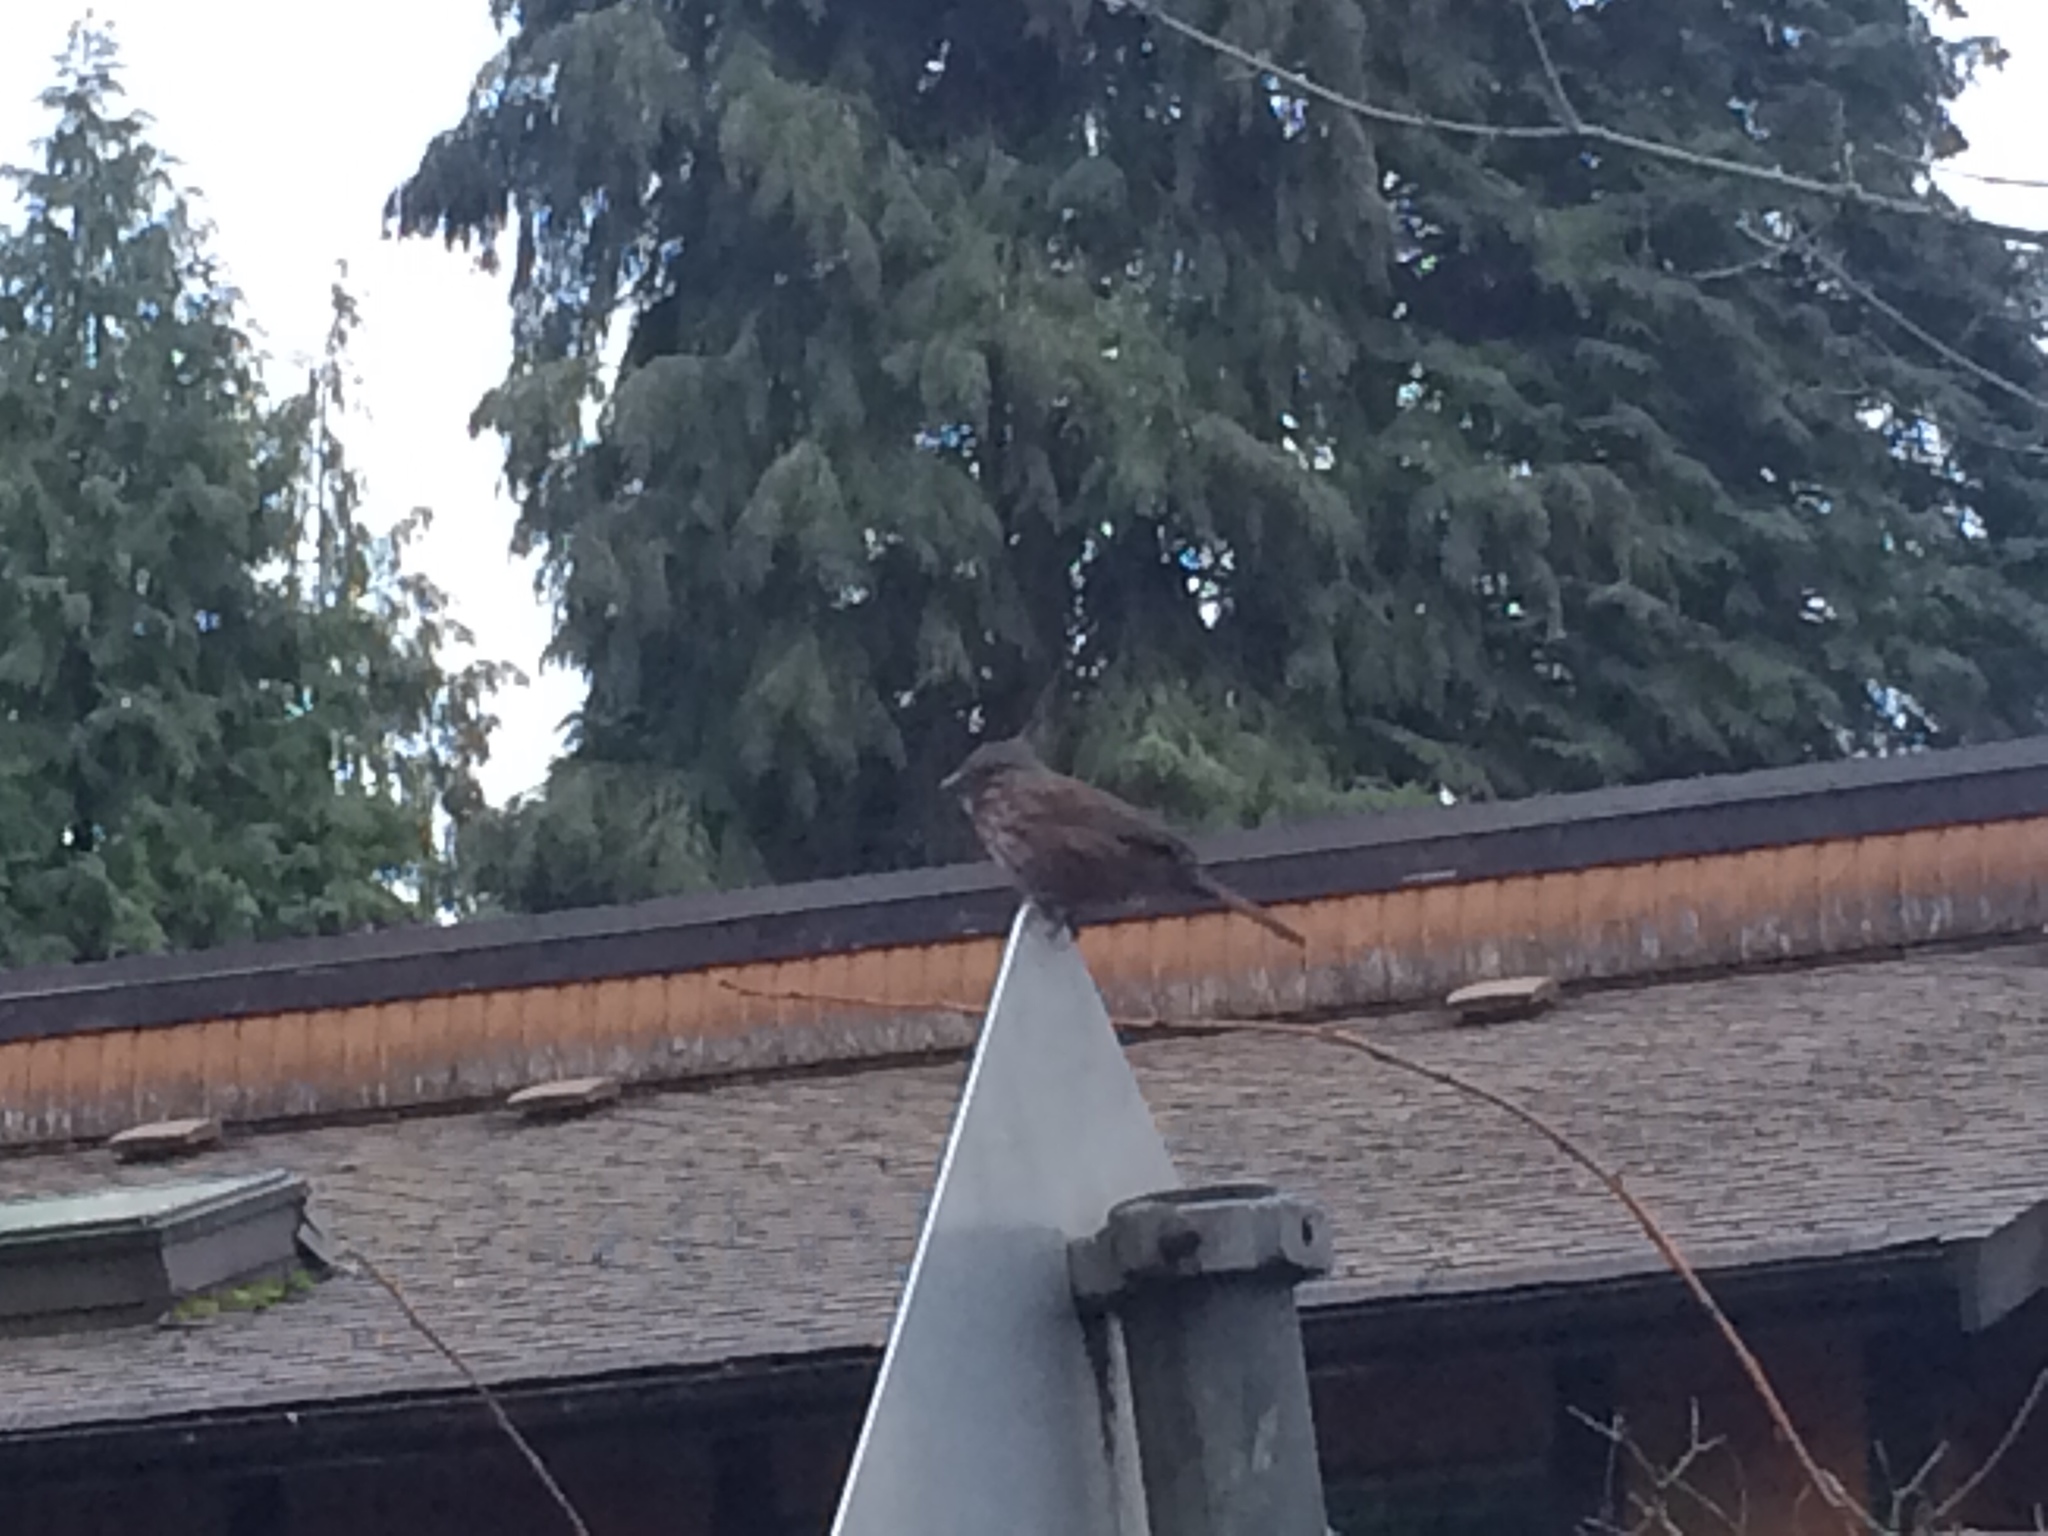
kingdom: Animalia
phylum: Chordata
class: Aves
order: Passeriformes
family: Passerellidae
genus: Melospiza
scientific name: Melospiza melodia
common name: Song sparrow
